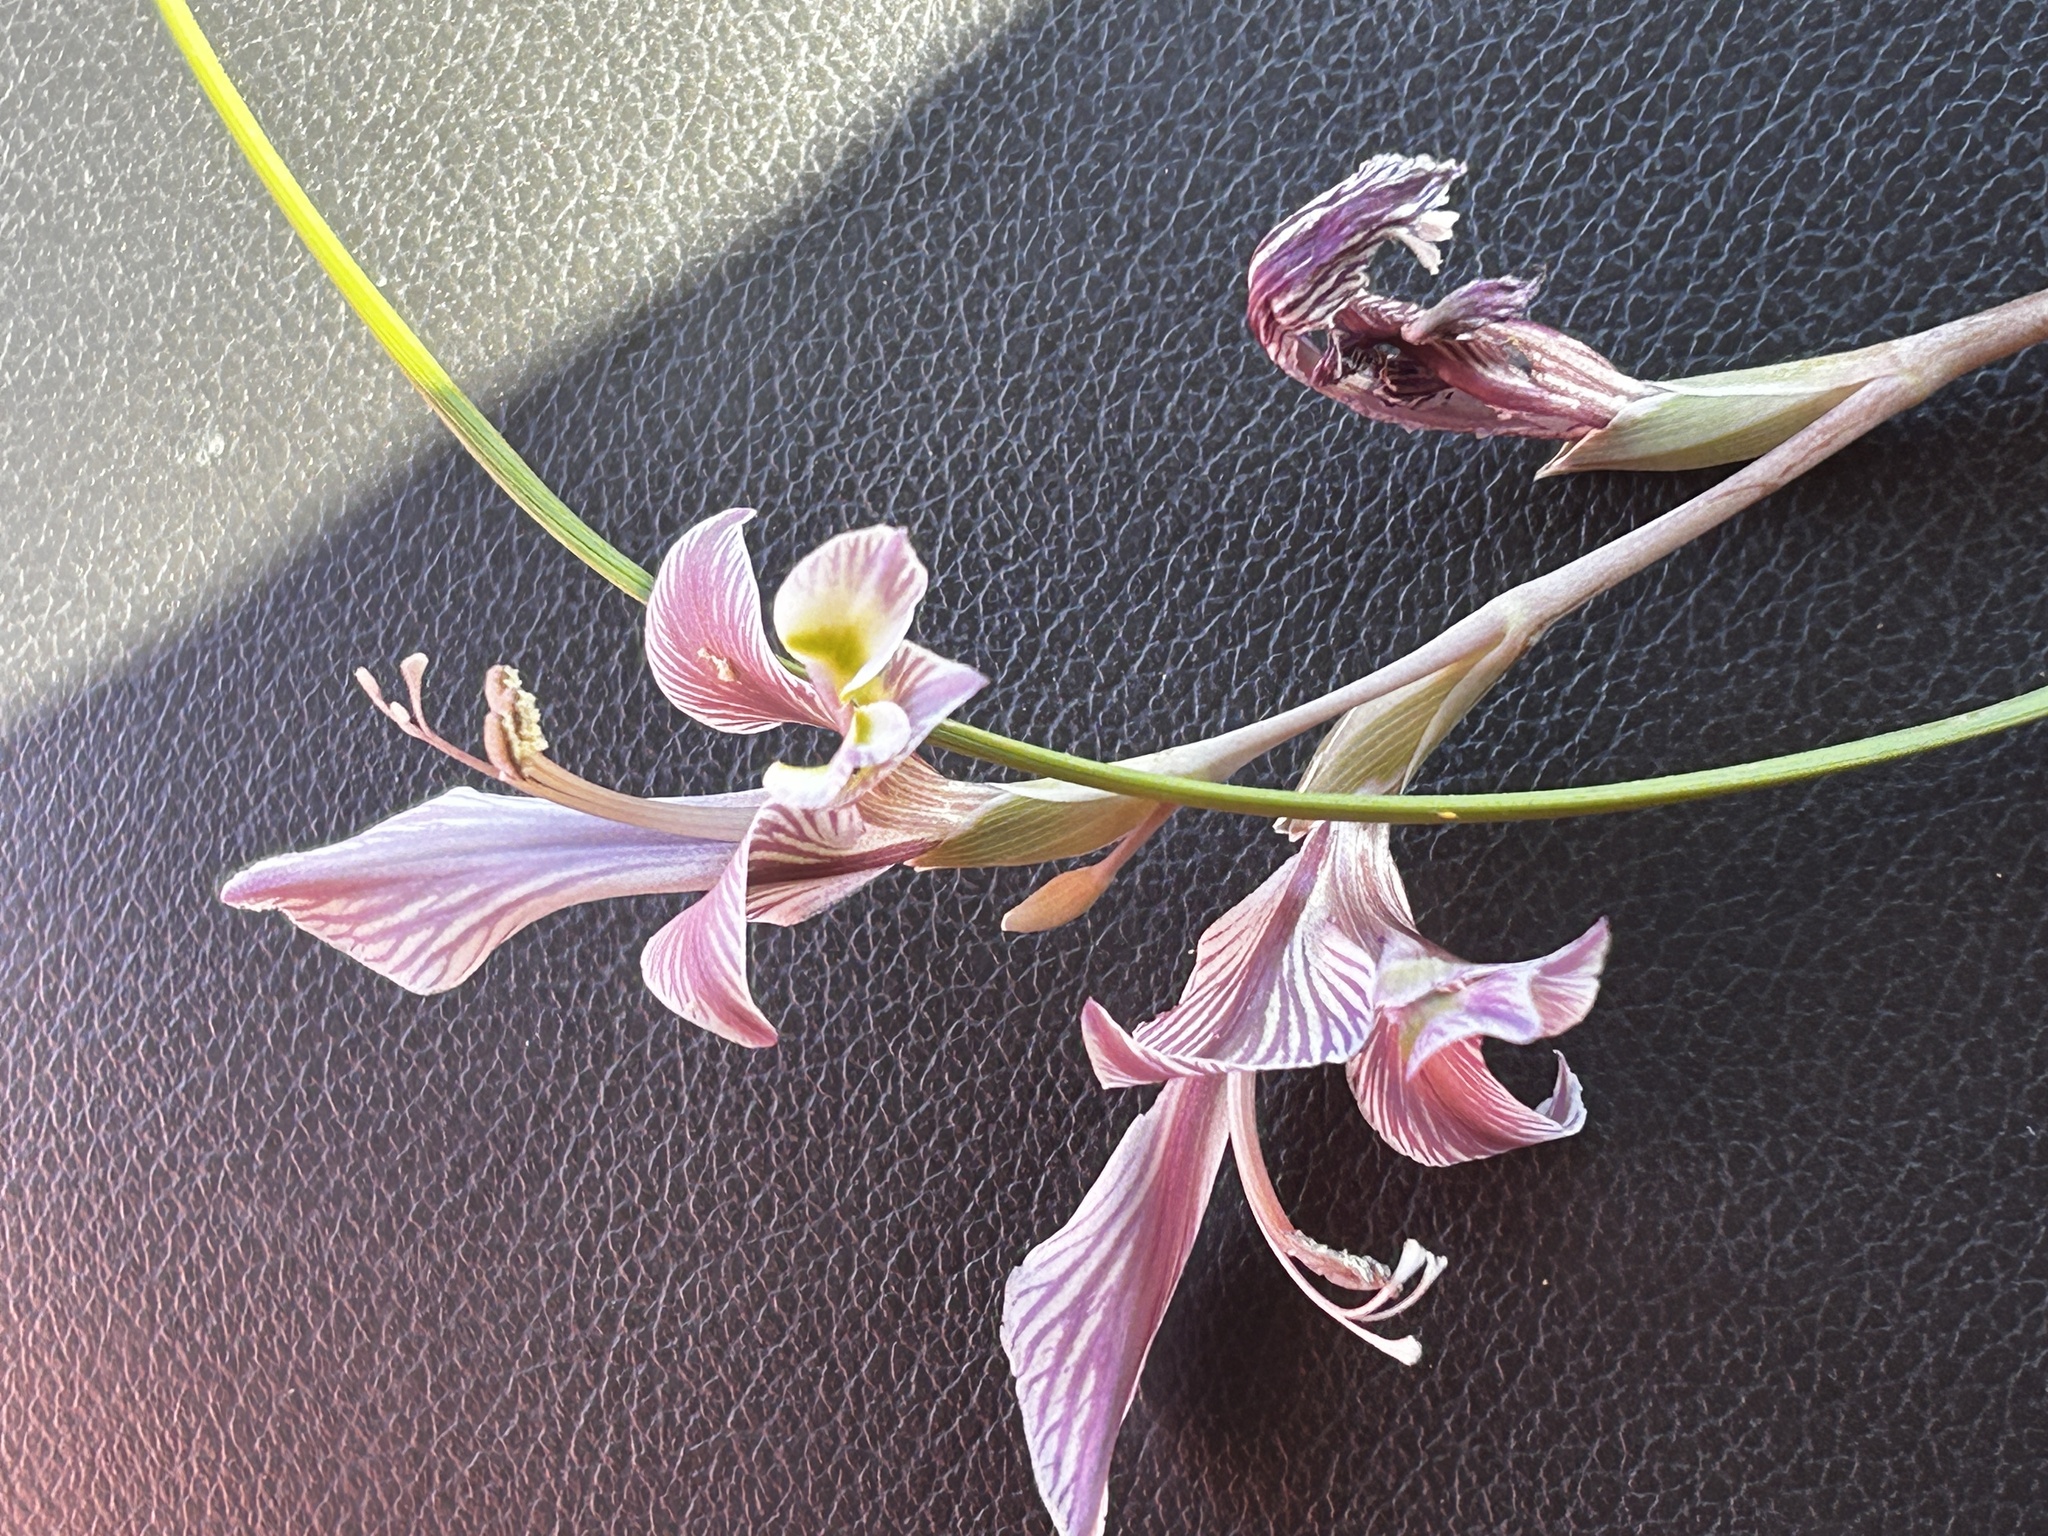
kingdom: Plantae
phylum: Tracheophyta
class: Liliopsida
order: Asparagales
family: Iridaceae
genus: Gladiolus
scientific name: Gladiolus virescens
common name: Yellow kalkoentjie
